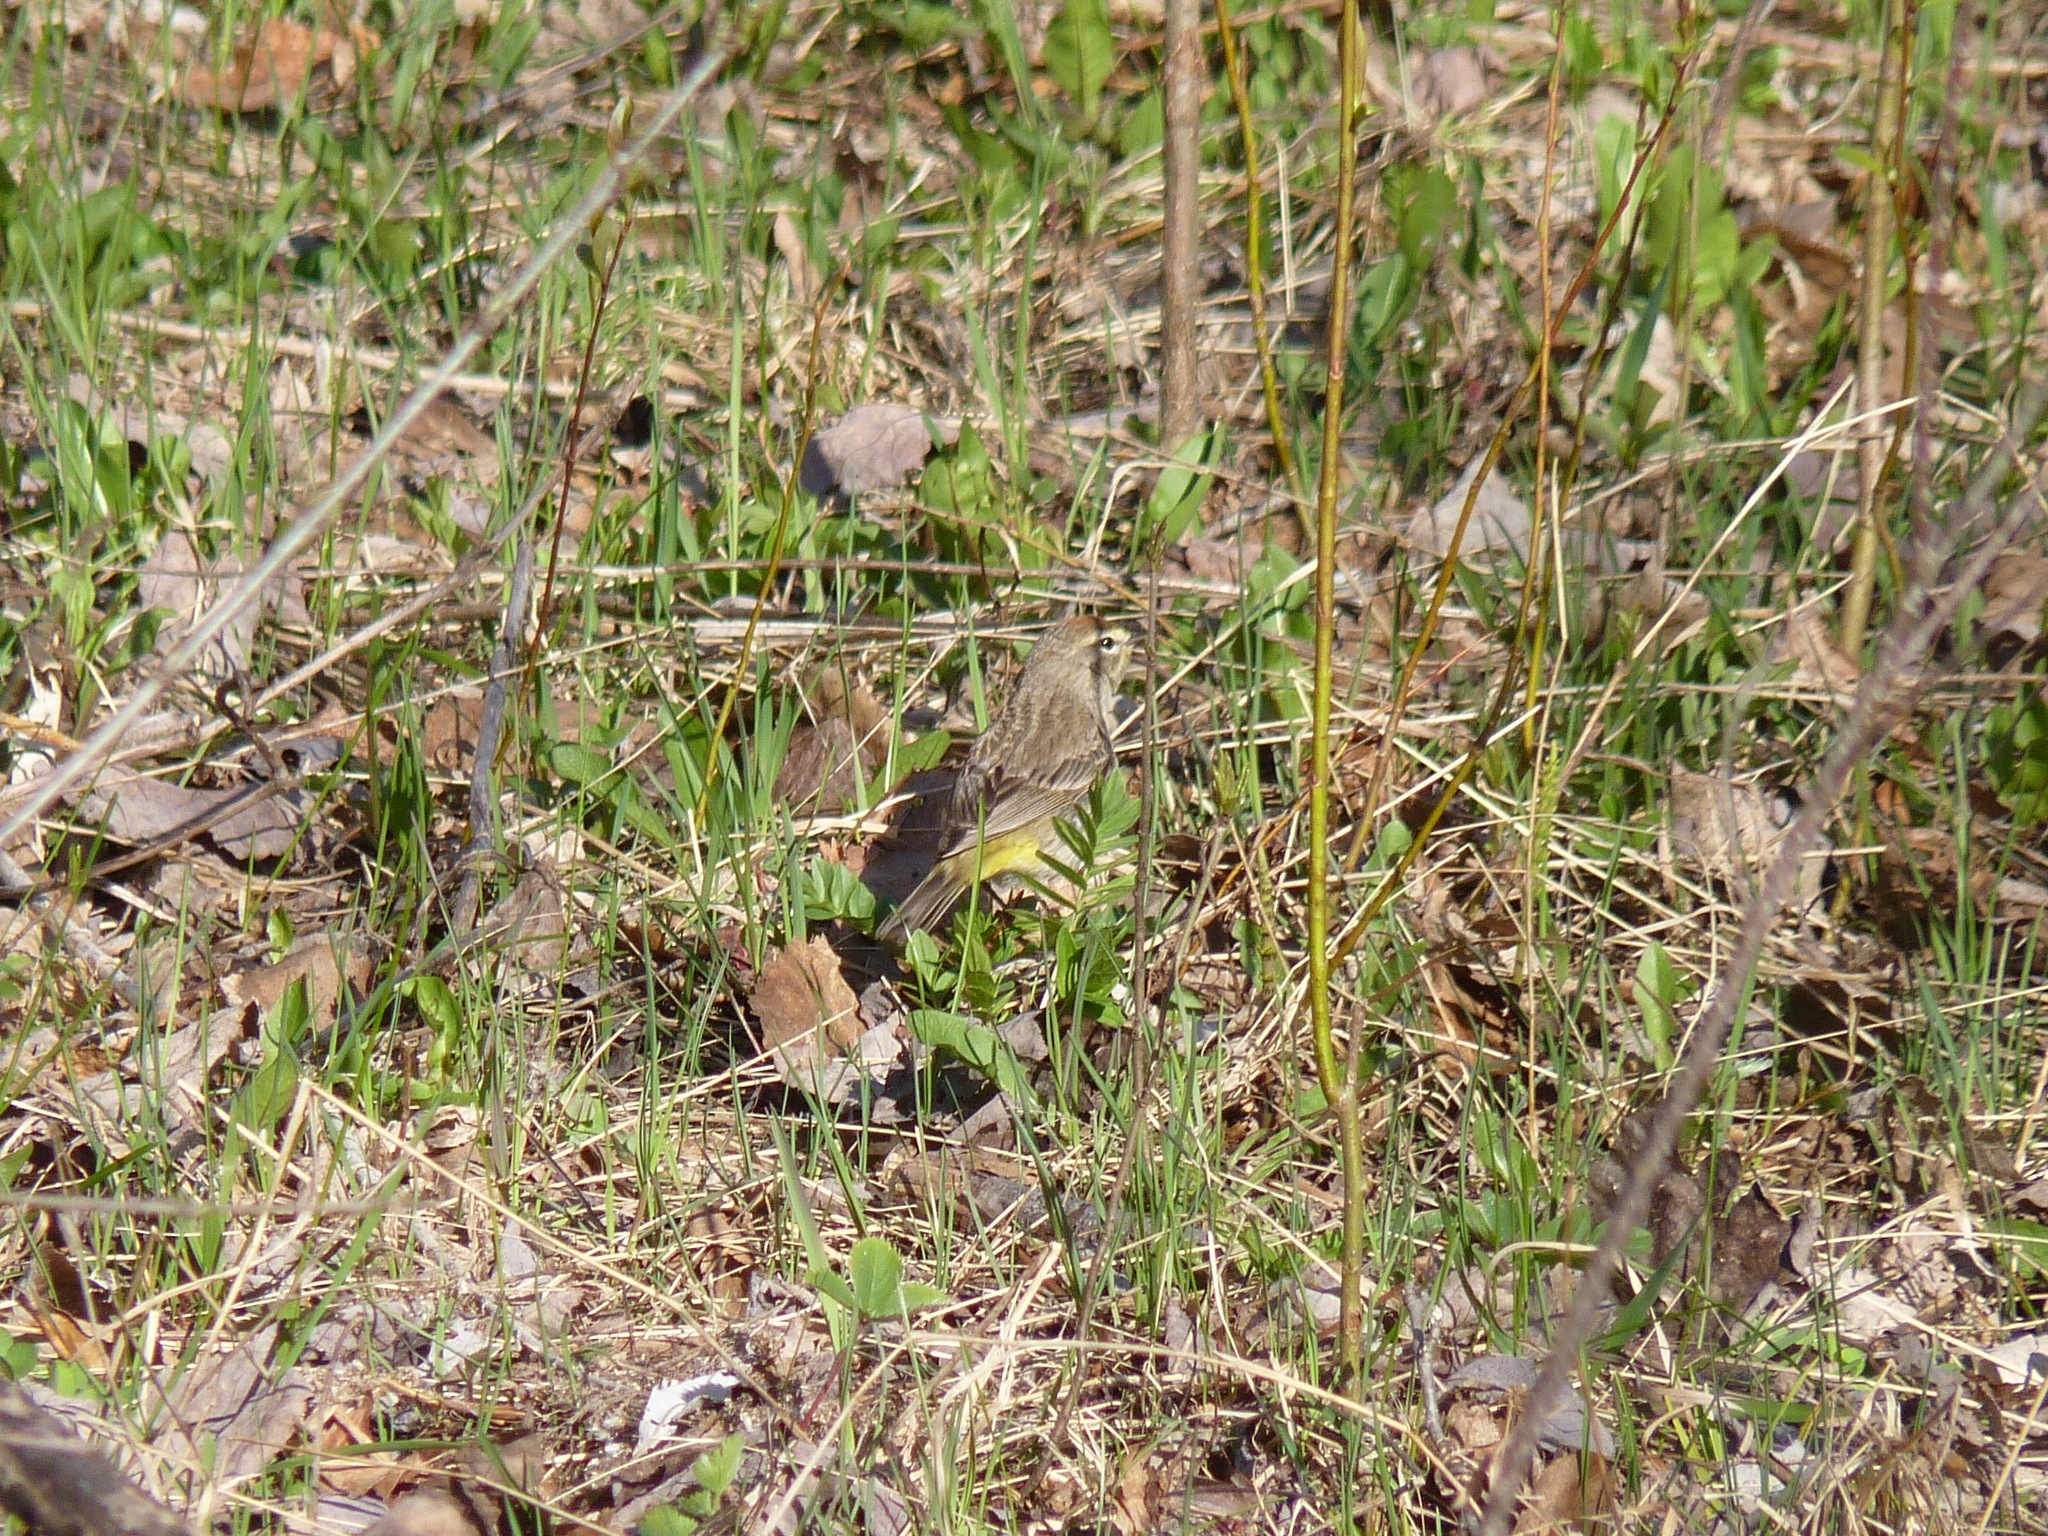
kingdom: Animalia
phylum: Chordata
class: Aves
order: Passeriformes
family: Parulidae
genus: Setophaga
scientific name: Setophaga palmarum
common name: Palm warbler
